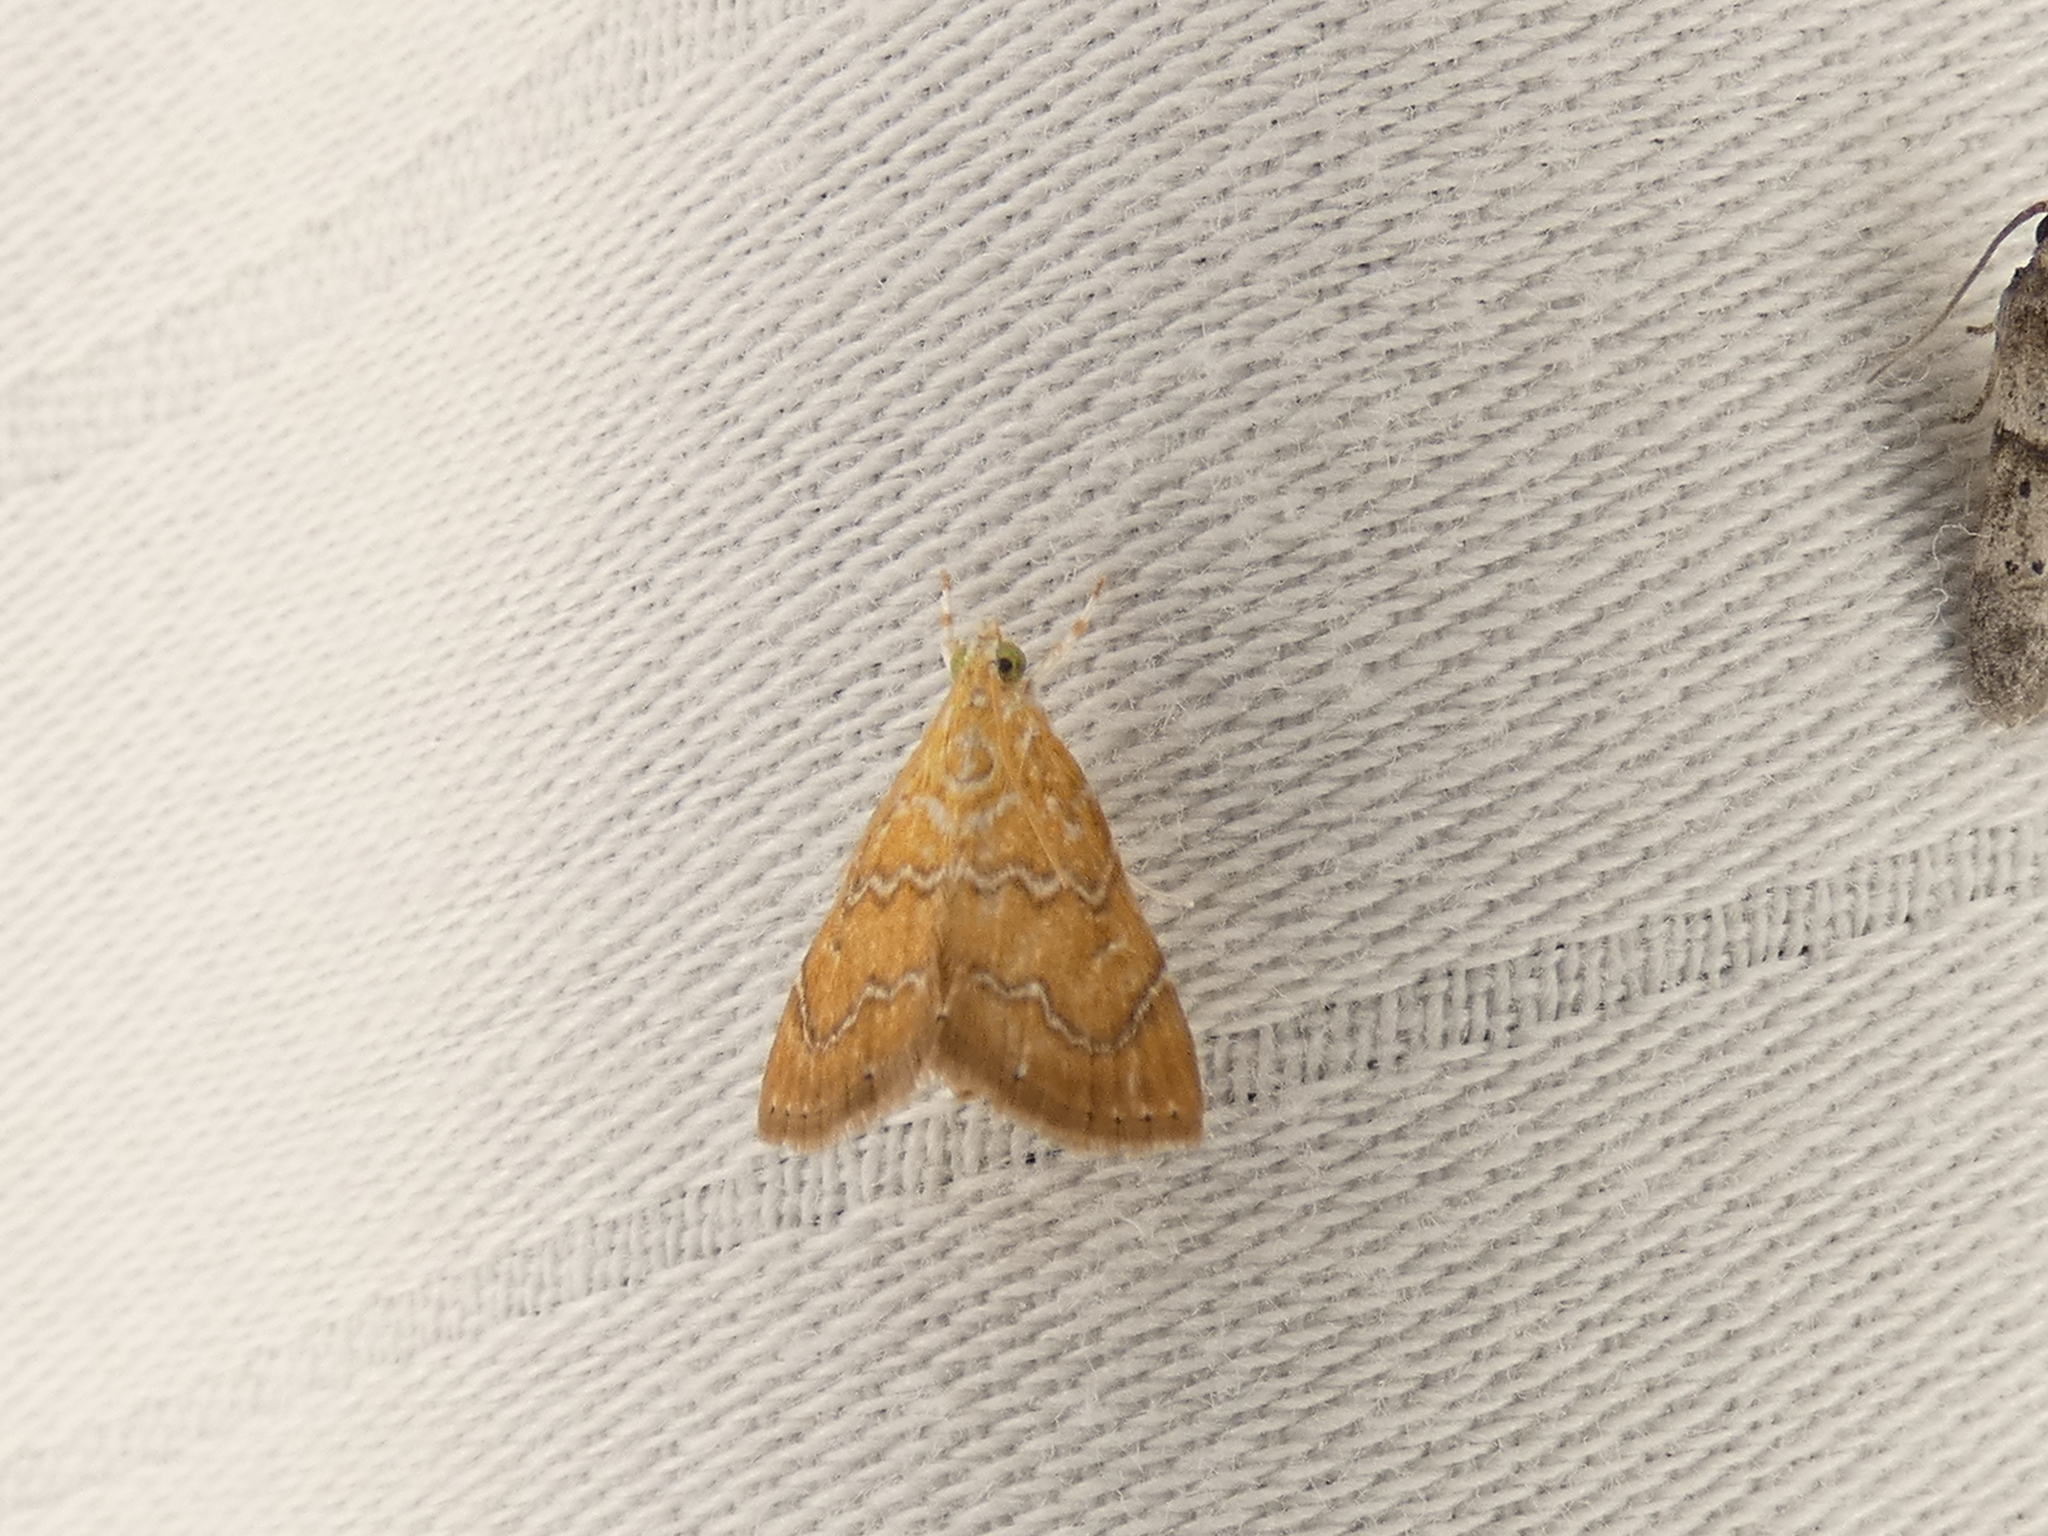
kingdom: Animalia
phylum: Arthropoda
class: Insecta
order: Lepidoptera
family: Crambidae
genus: Glaphyria
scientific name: Glaphyria sesquistrialis
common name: White-roped glaphyria
